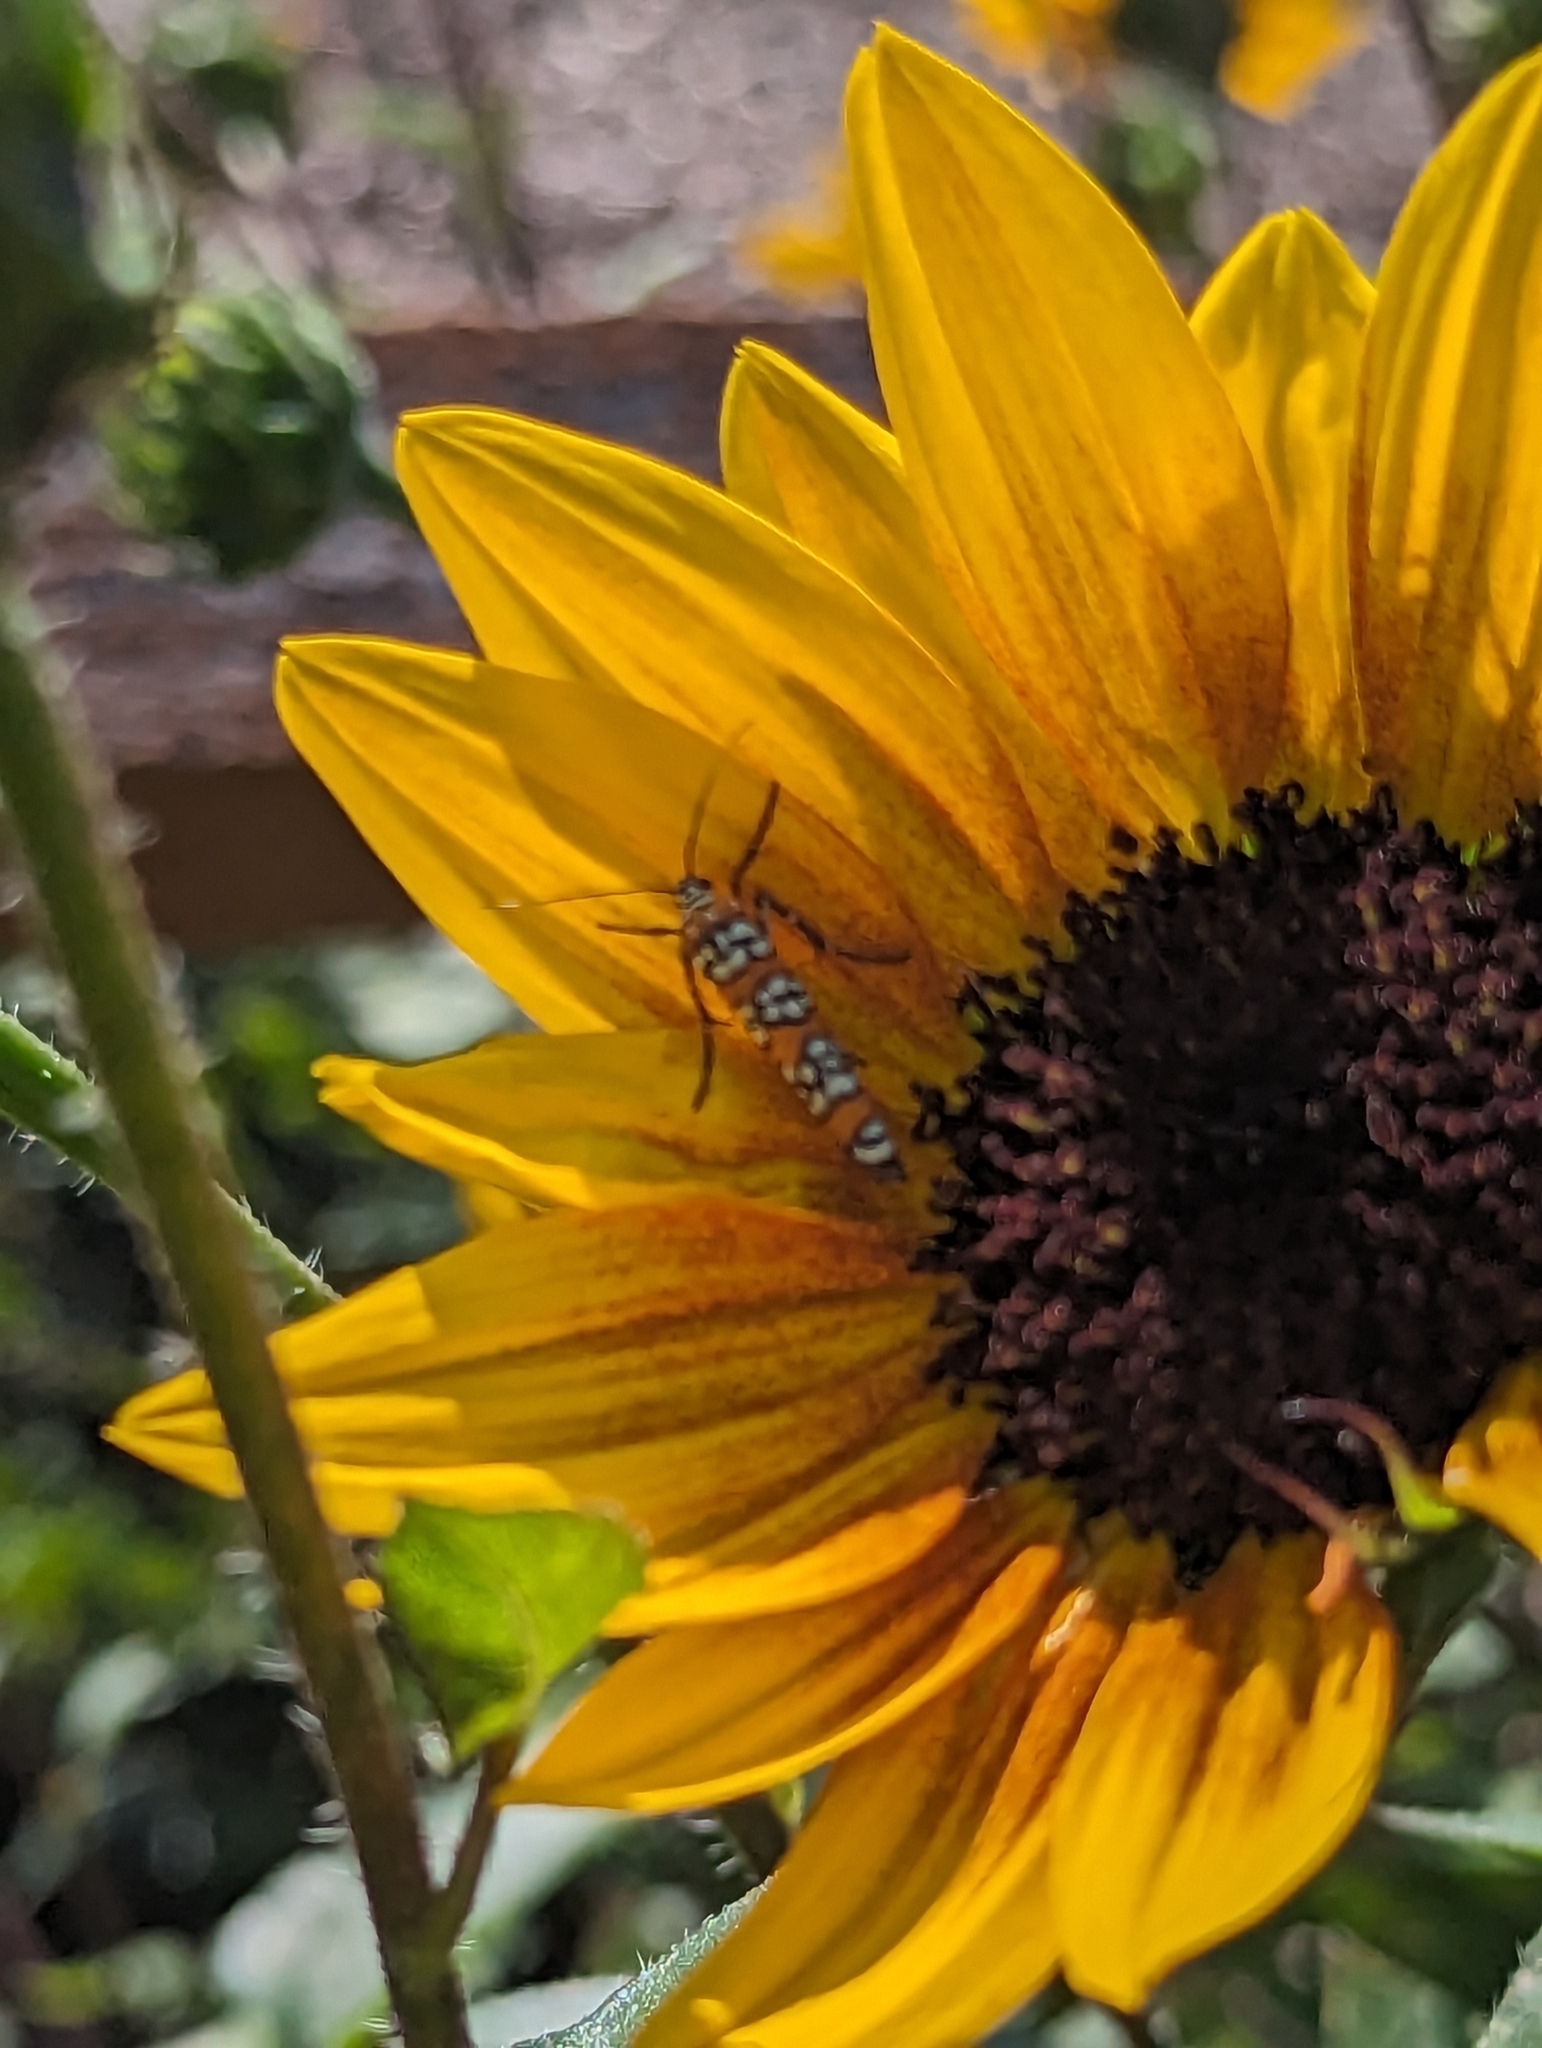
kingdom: Animalia
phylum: Arthropoda
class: Insecta
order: Lepidoptera
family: Attevidae
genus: Atteva
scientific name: Atteva punctella
